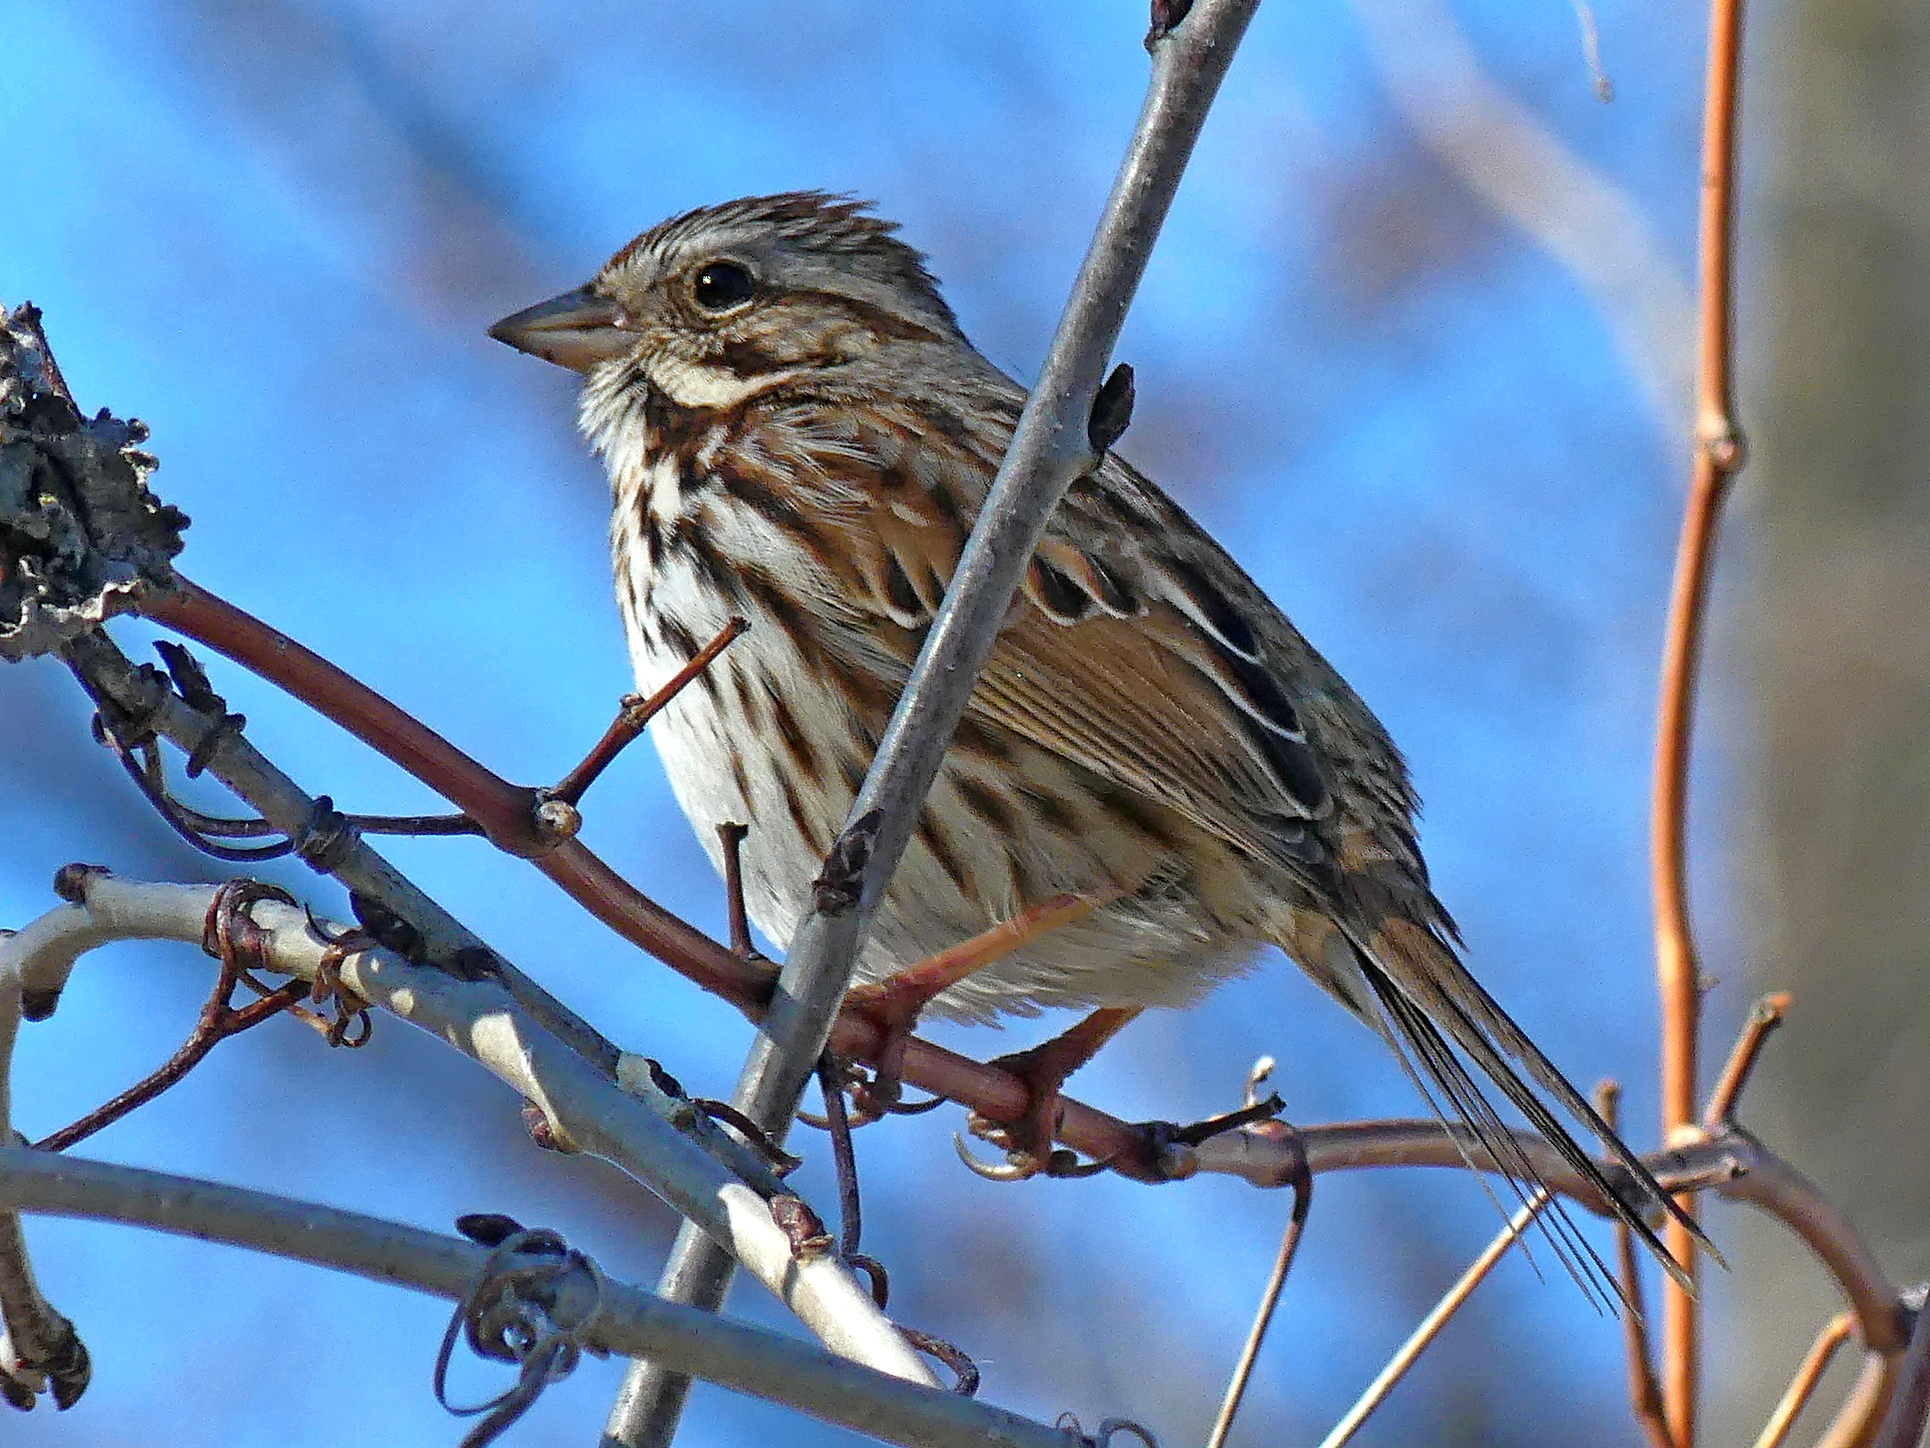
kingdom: Animalia
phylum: Chordata
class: Aves
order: Passeriformes
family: Passerellidae
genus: Melospiza
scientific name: Melospiza melodia
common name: Song sparrow
